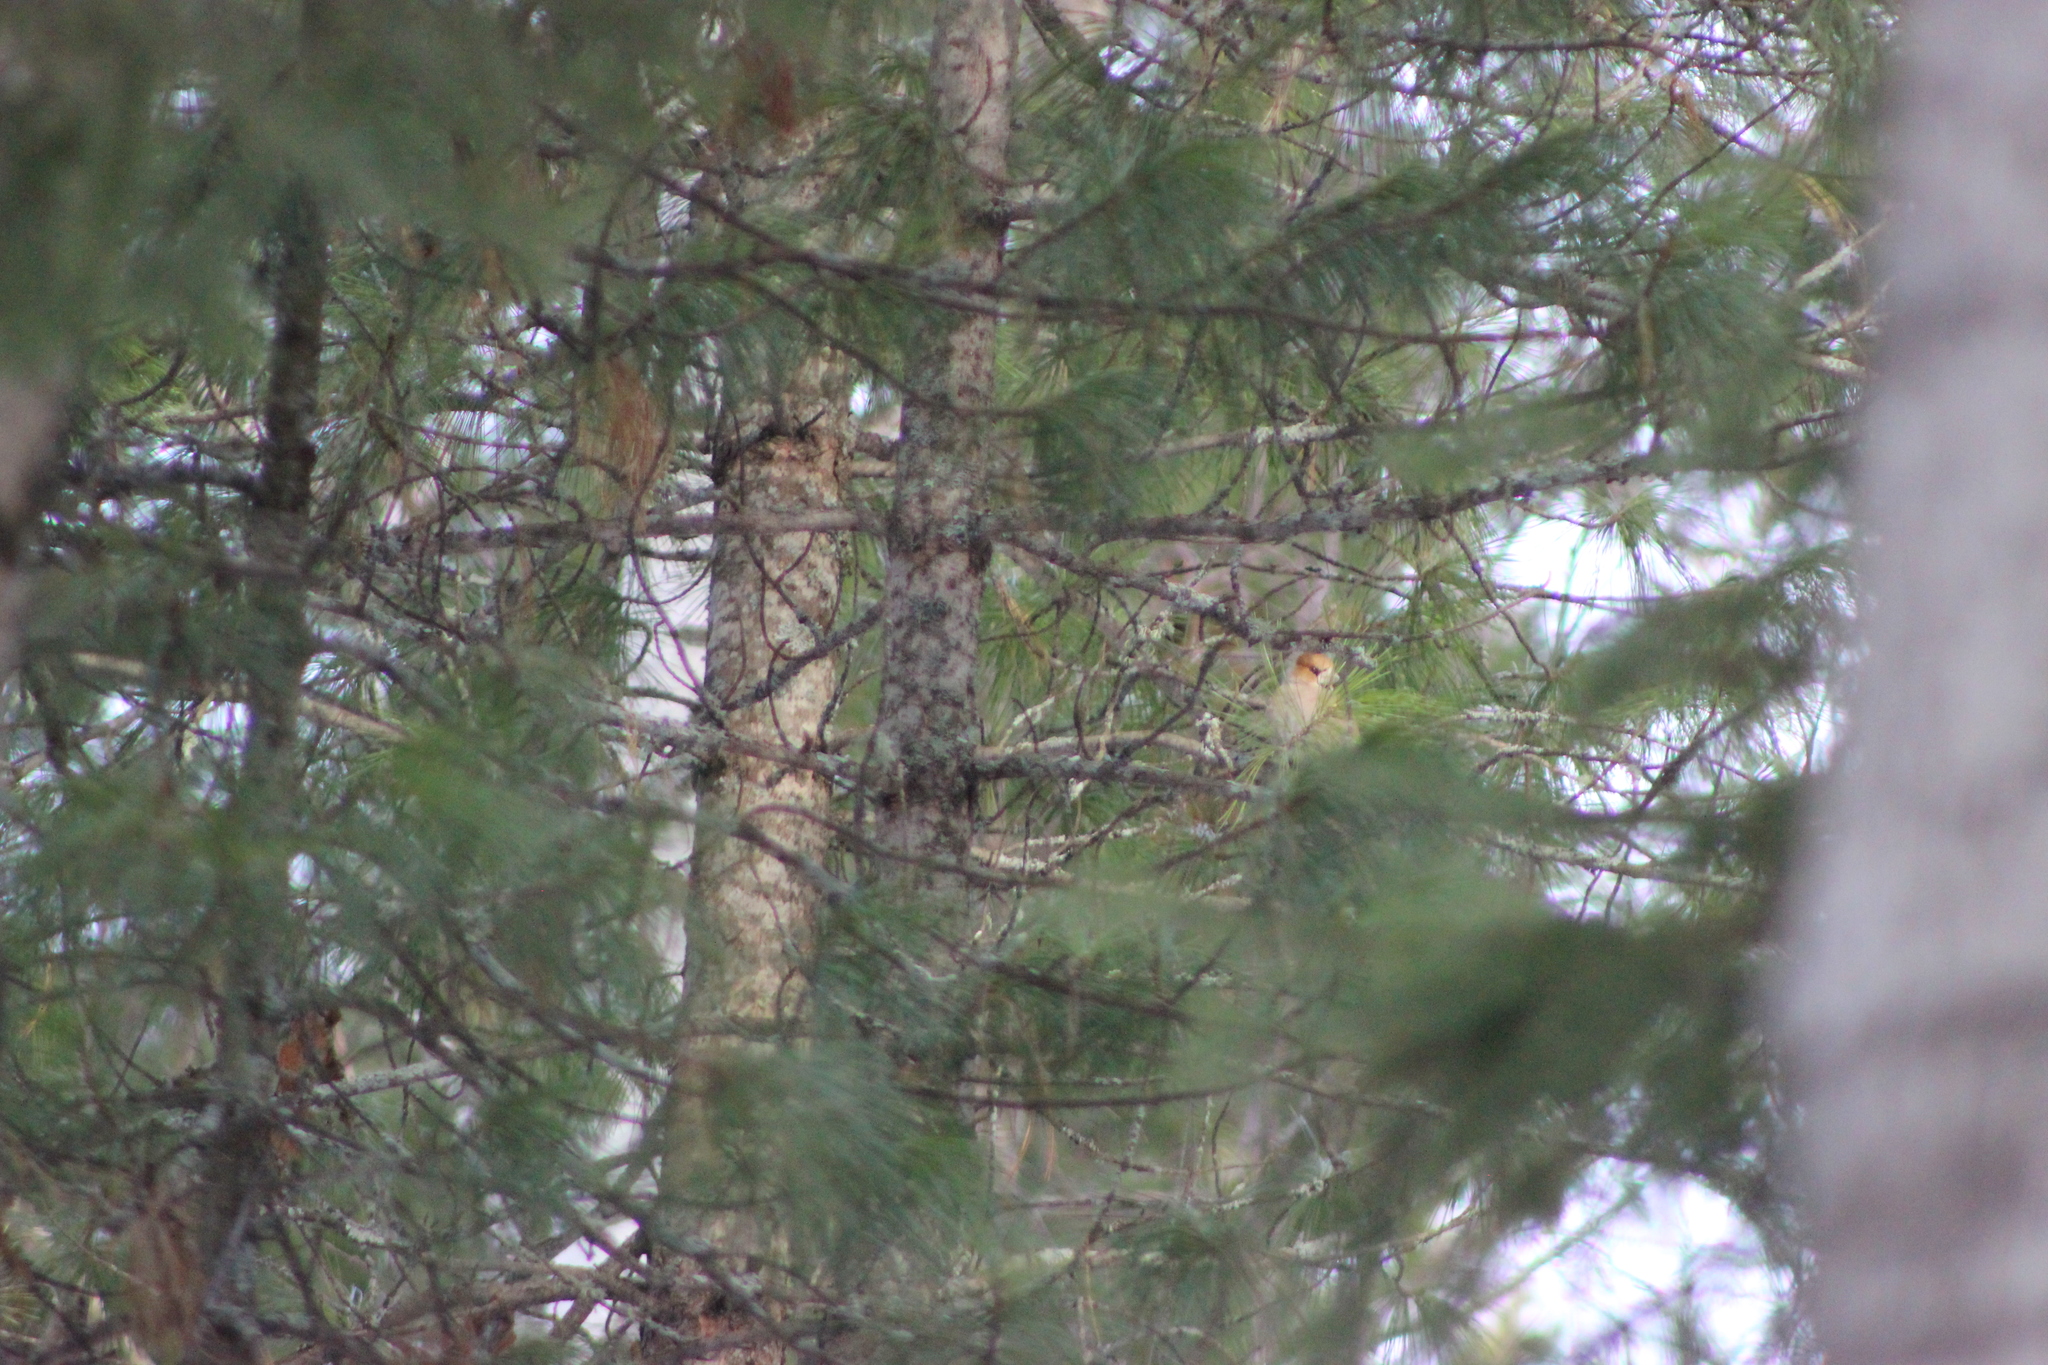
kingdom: Animalia
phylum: Chordata
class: Aves
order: Passeriformes
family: Fringillidae
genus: Coccothraustes
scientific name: Coccothraustes coccothraustes
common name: Hawfinch
